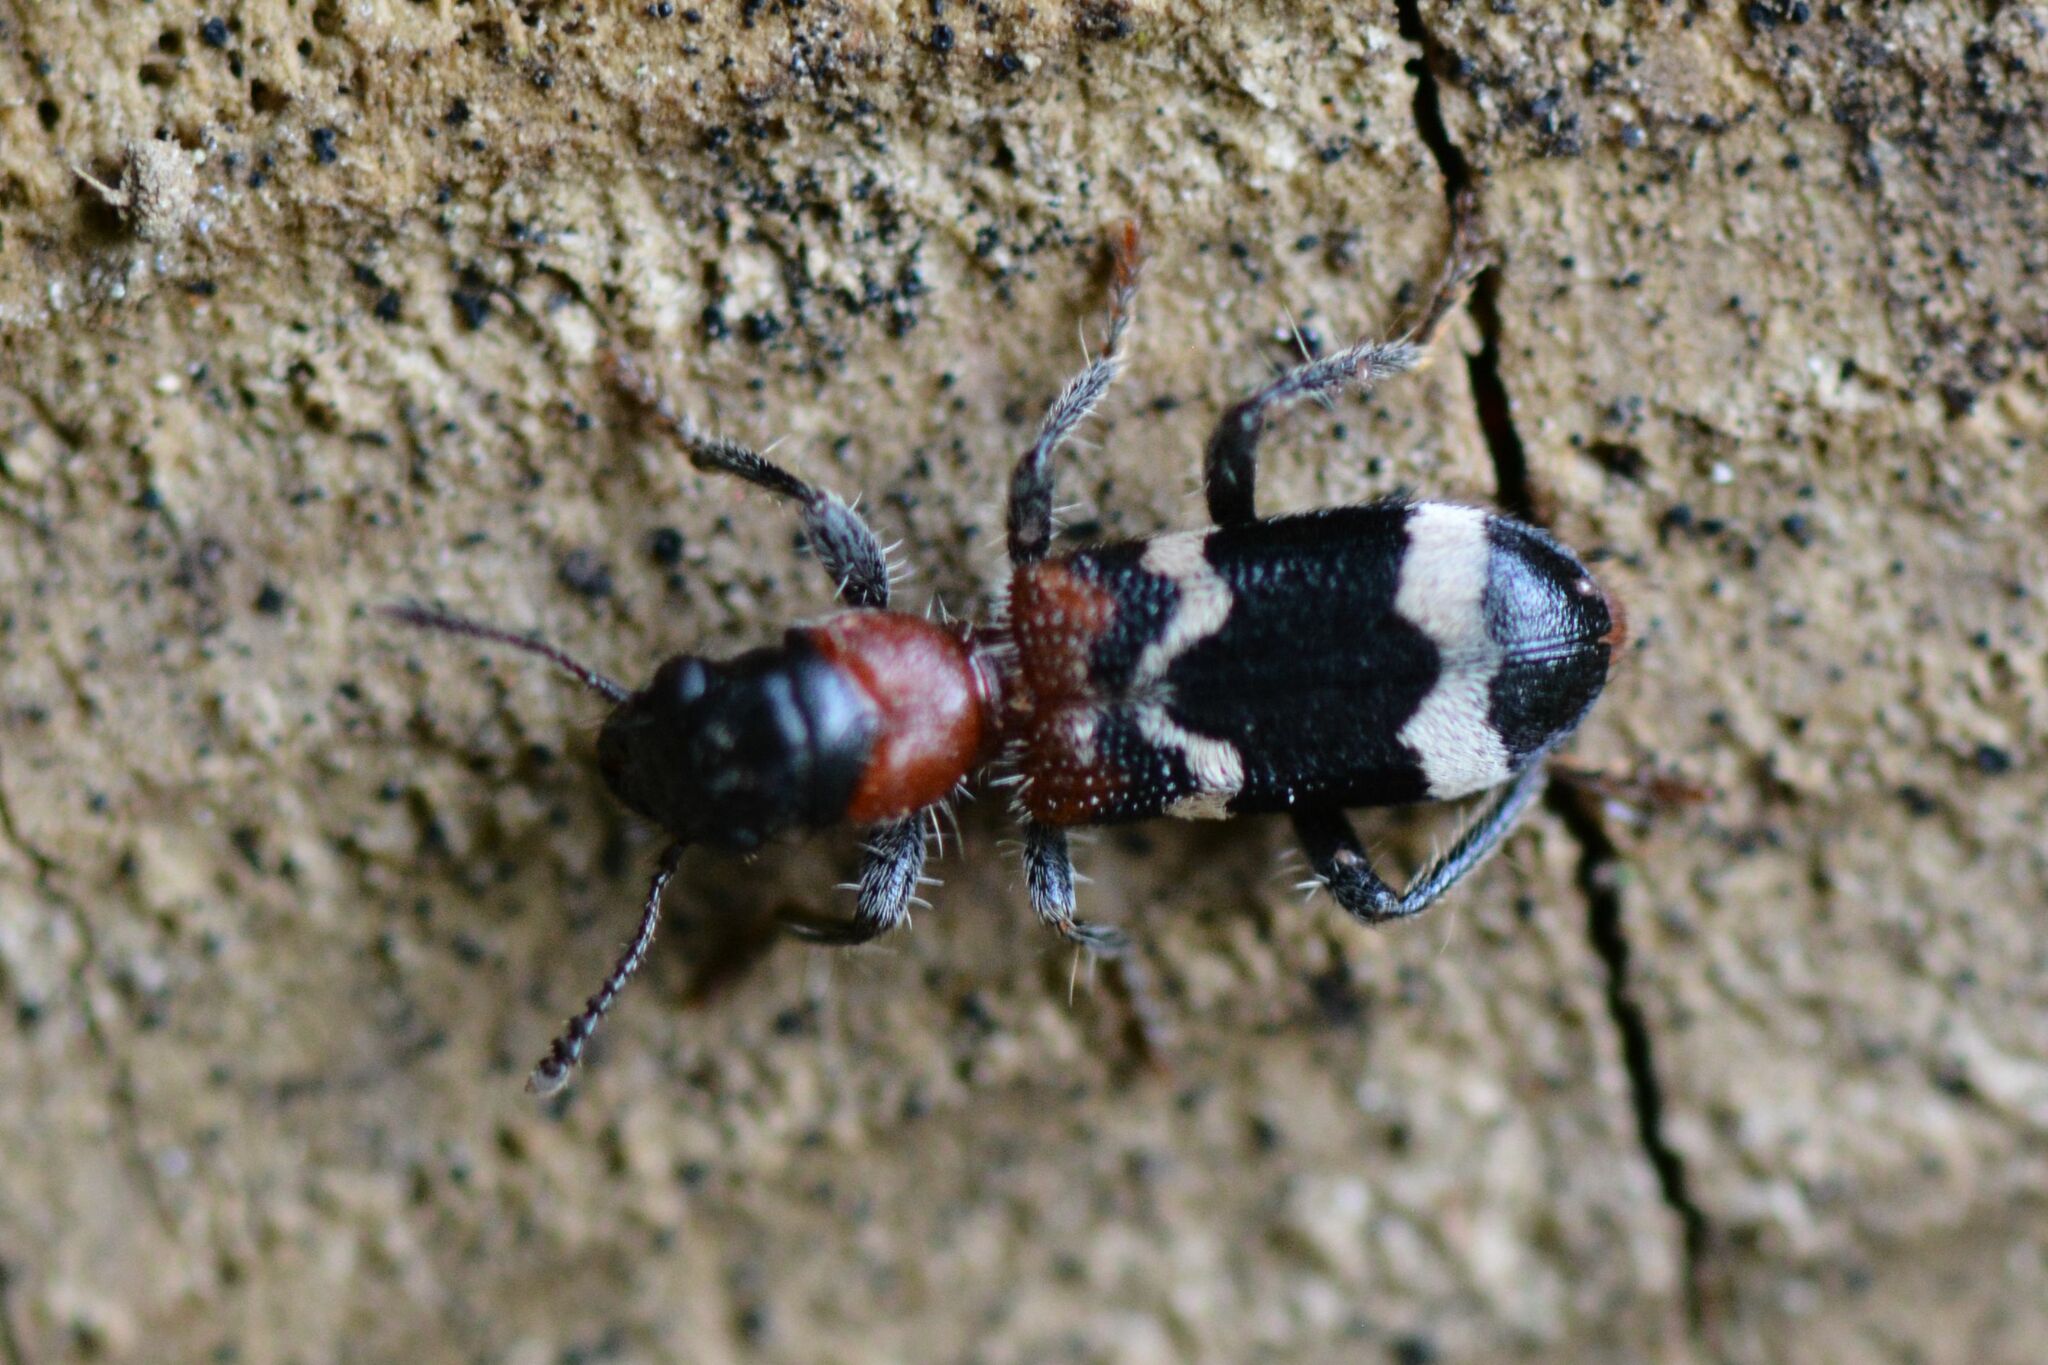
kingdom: Animalia
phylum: Arthropoda
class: Insecta
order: Coleoptera
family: Cleridae
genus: Thanasimus
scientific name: Thanasimus formicarius
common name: Ant beetle
